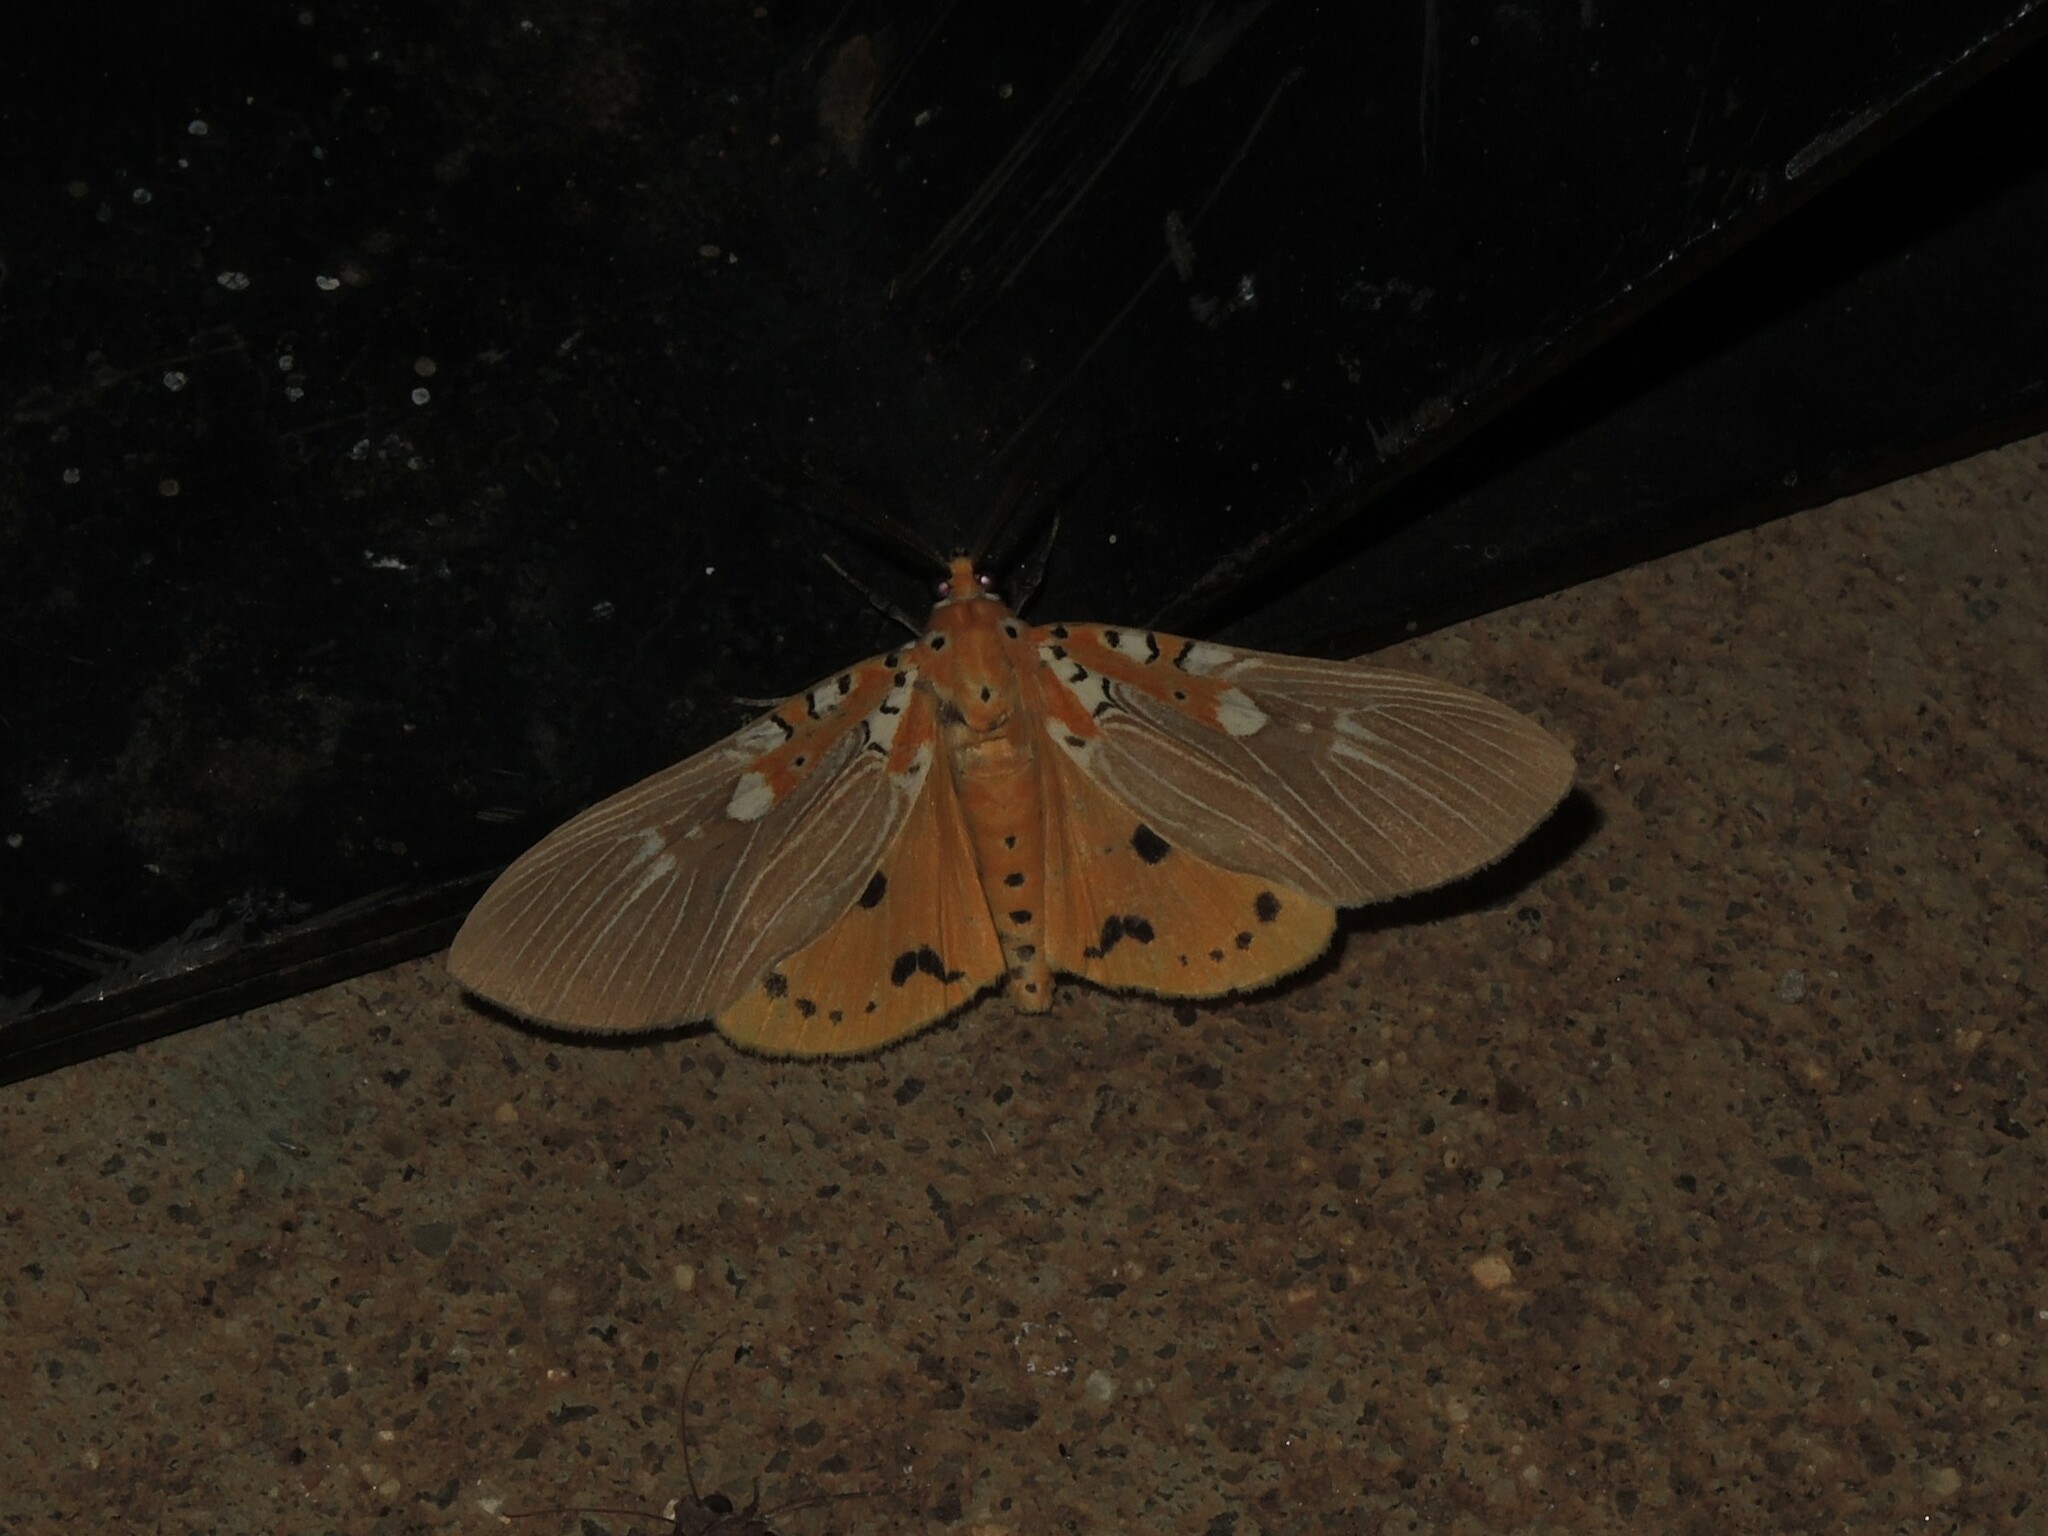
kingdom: Animalia
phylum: Arthropoda
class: Insecta
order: Lepidoptera
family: Erebidae
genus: Asota
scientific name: Asota ficus
